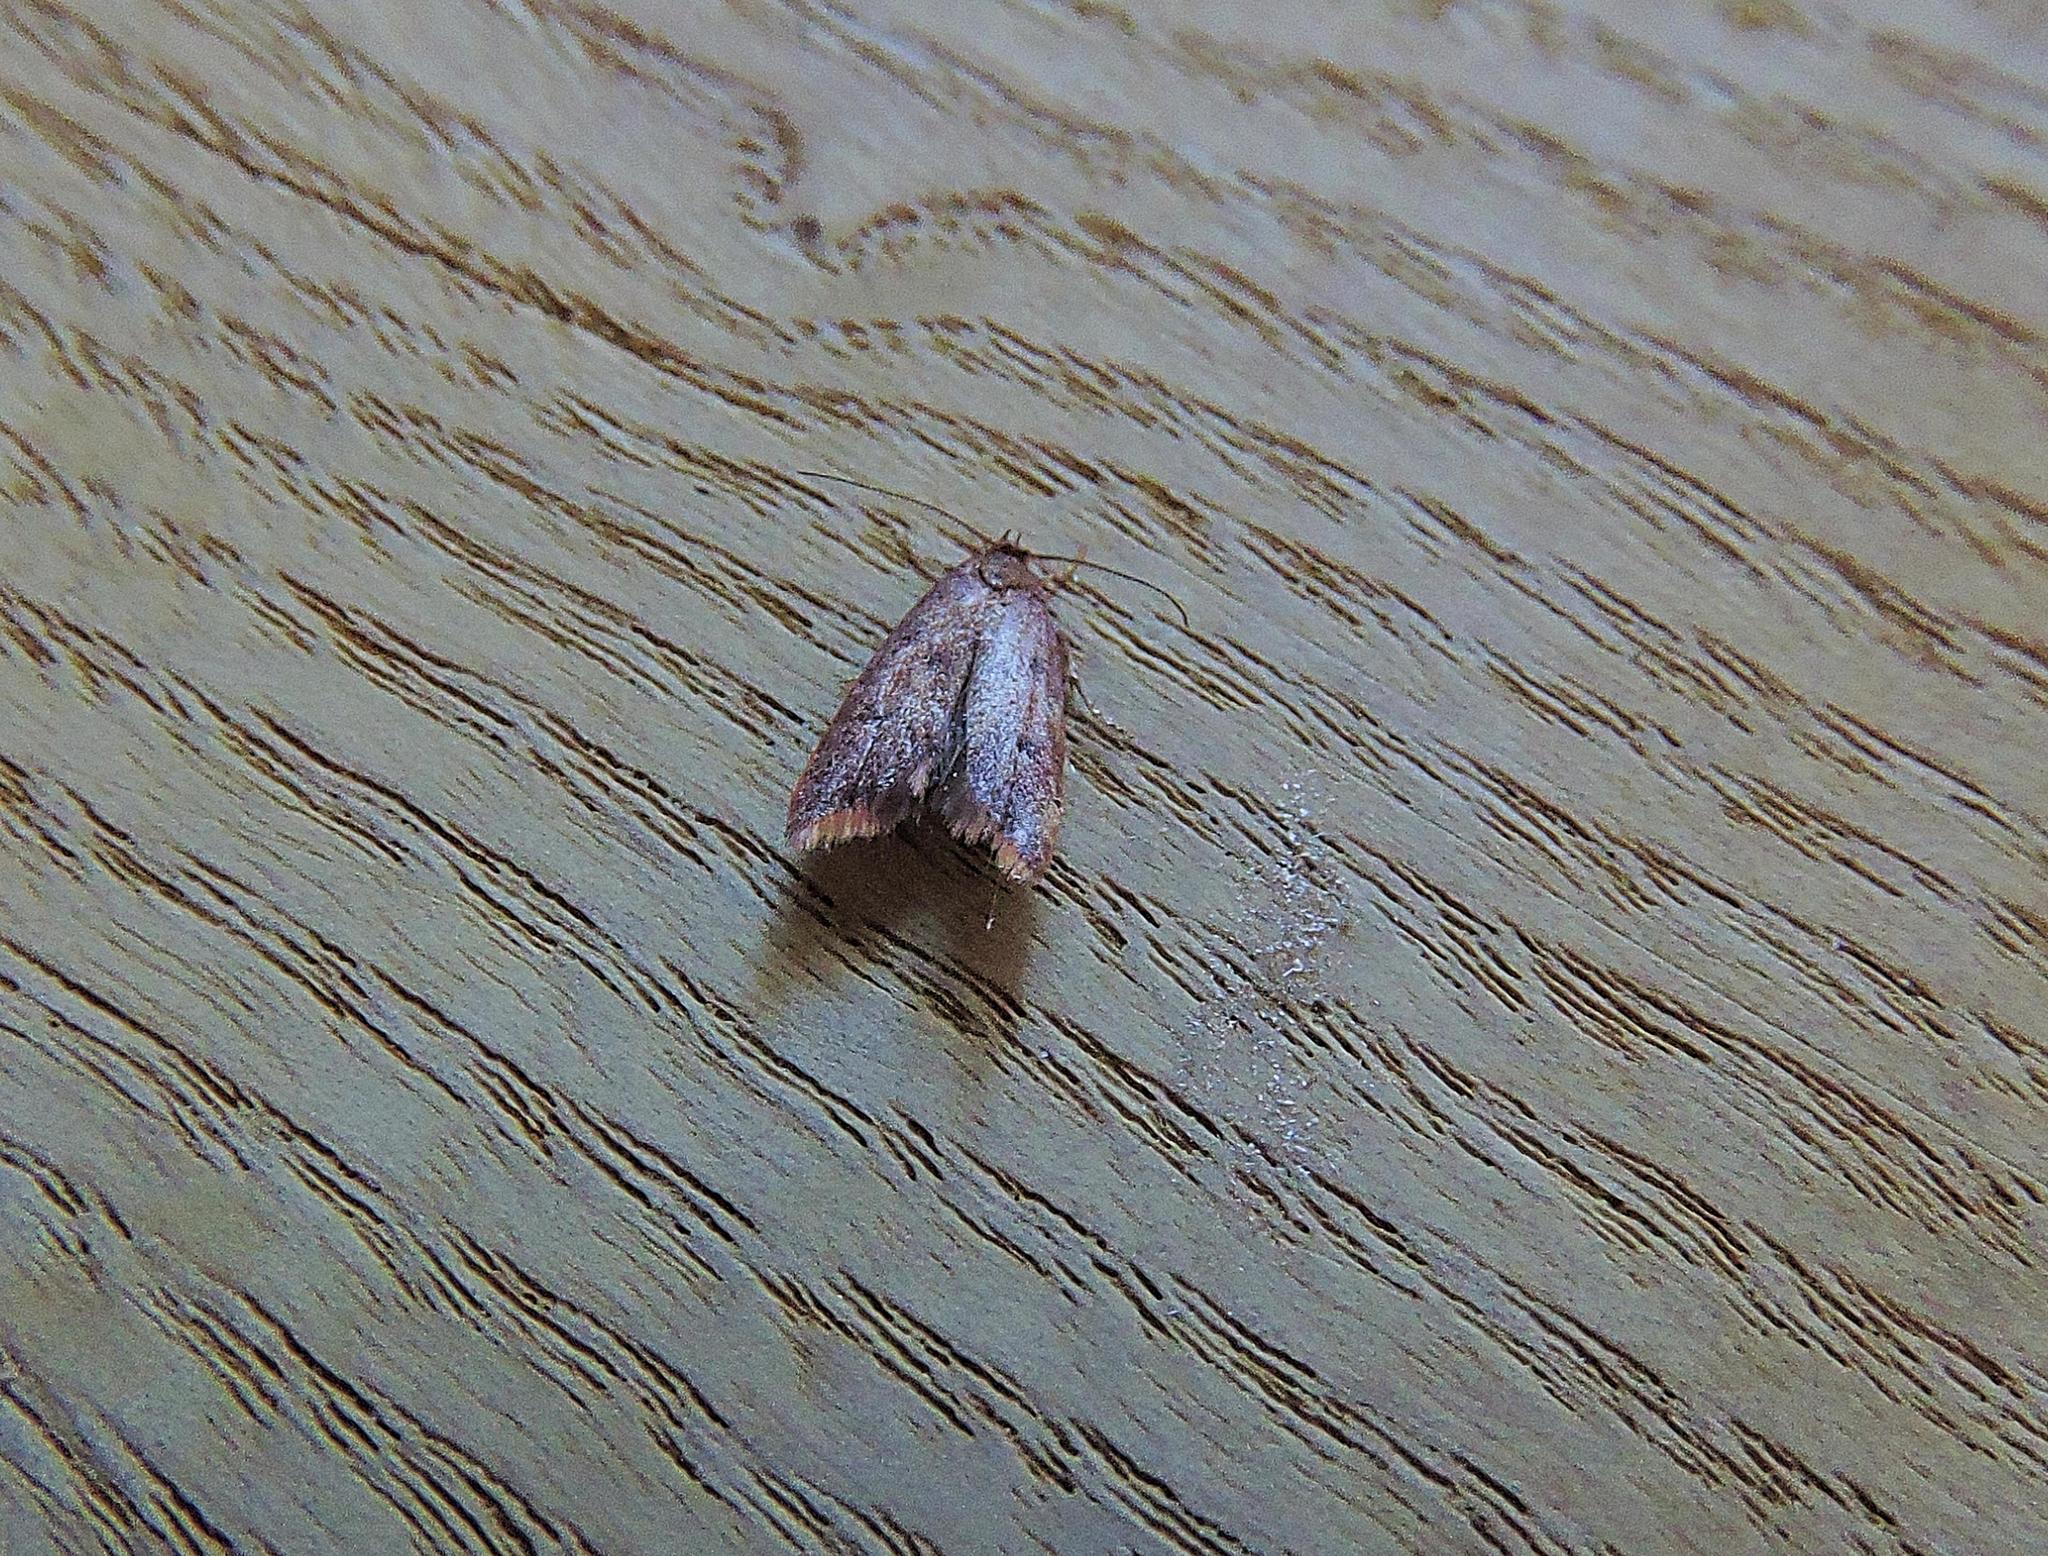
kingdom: Animalia
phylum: Arthropoda
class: Insecta
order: Lepidoptera
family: Oecophoridae
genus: Tachystola
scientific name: Tachystola acroxantha
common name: Ruddy streak
